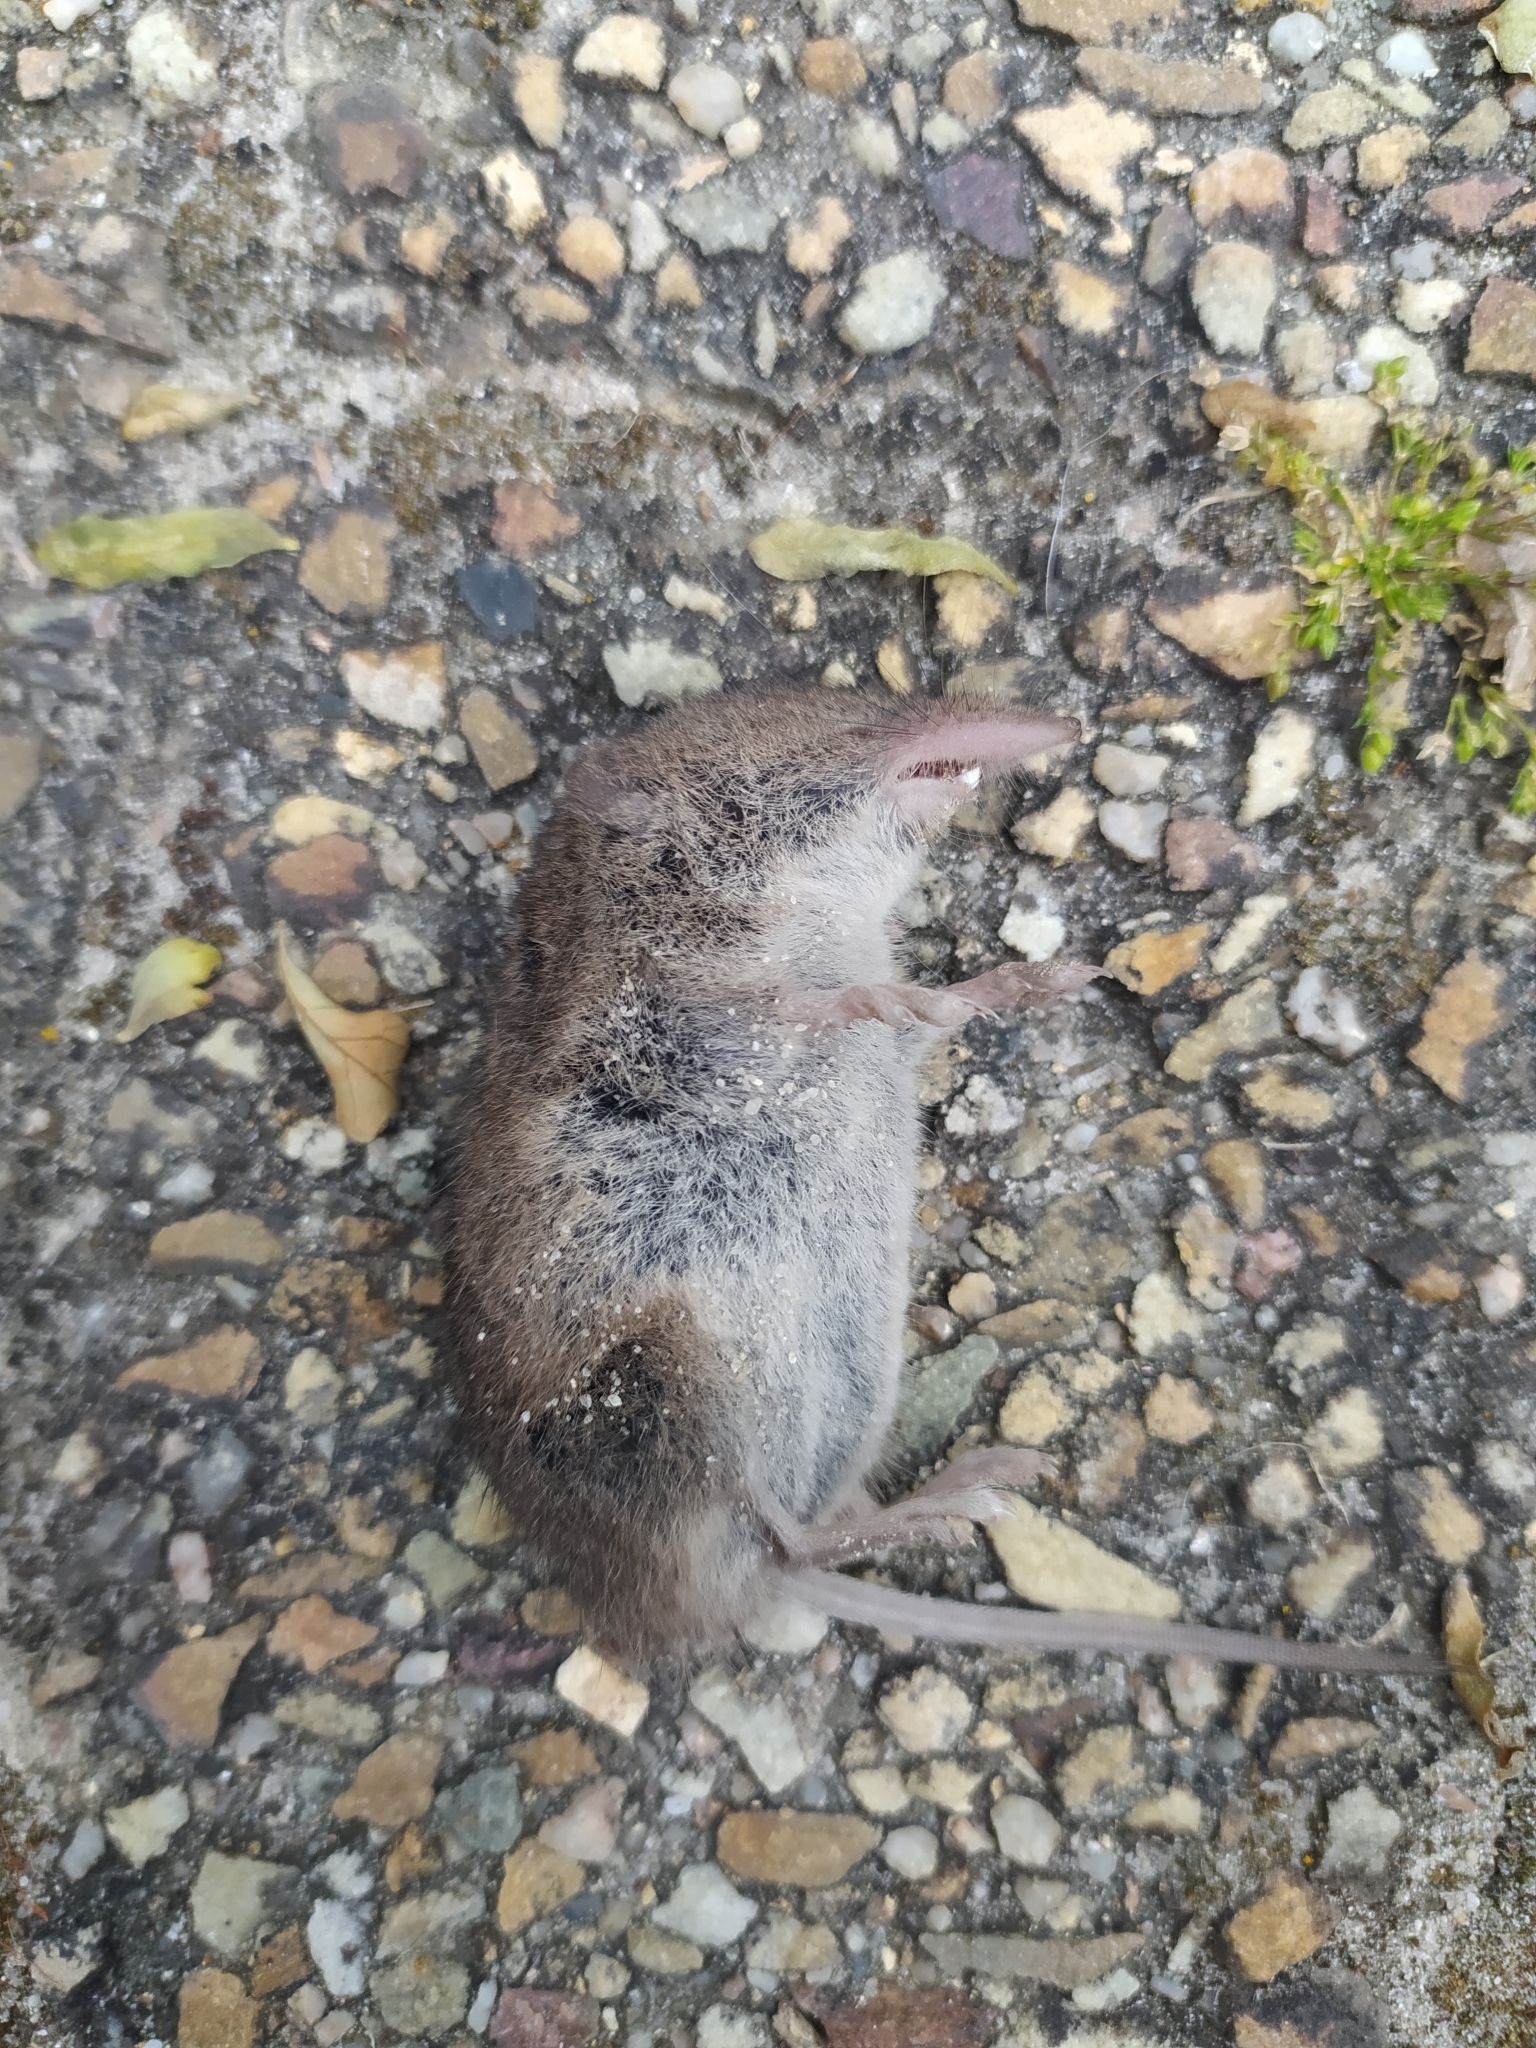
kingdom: Animalia
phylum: Chordata
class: Mammalia
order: Soricomorpha
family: Soricidae
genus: Myosorex
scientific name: Myosorex varius
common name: Forest shrew
